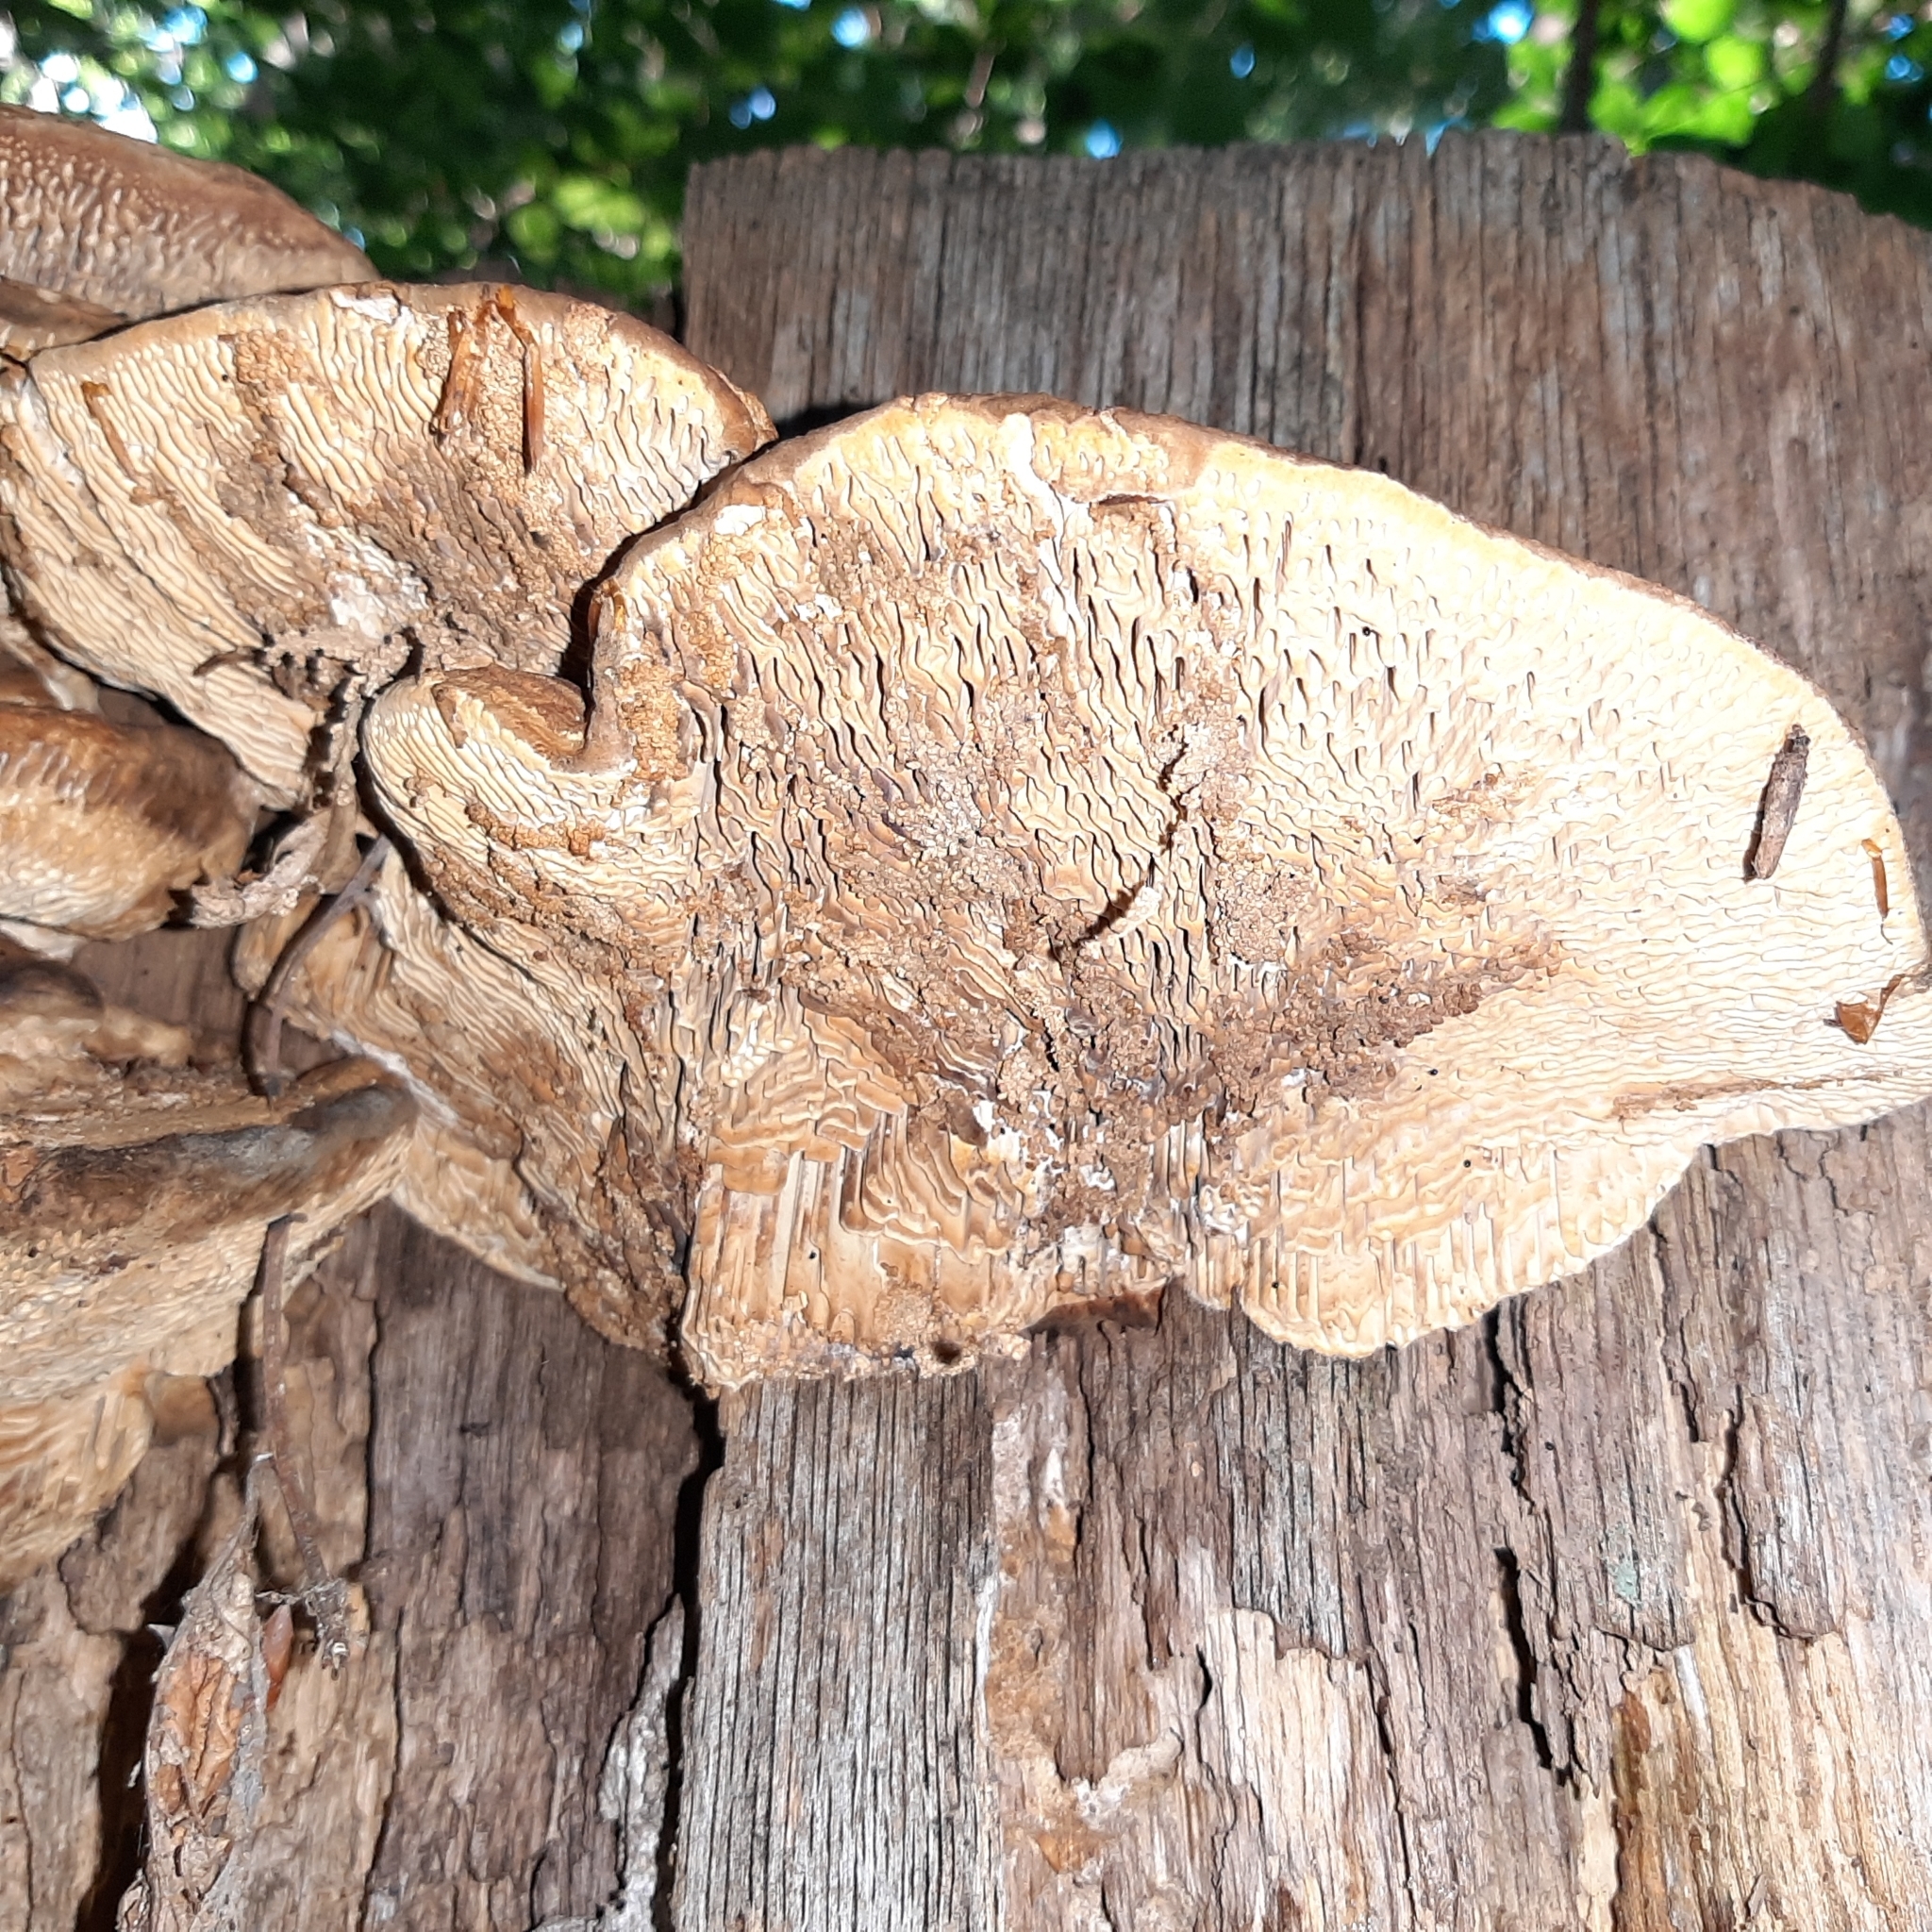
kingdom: Fungi
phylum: Basidiomycota
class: Agaricomycetes
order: Polyporales
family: Fomitopsidaceae
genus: Fomitopsis
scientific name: Fomitopsis
